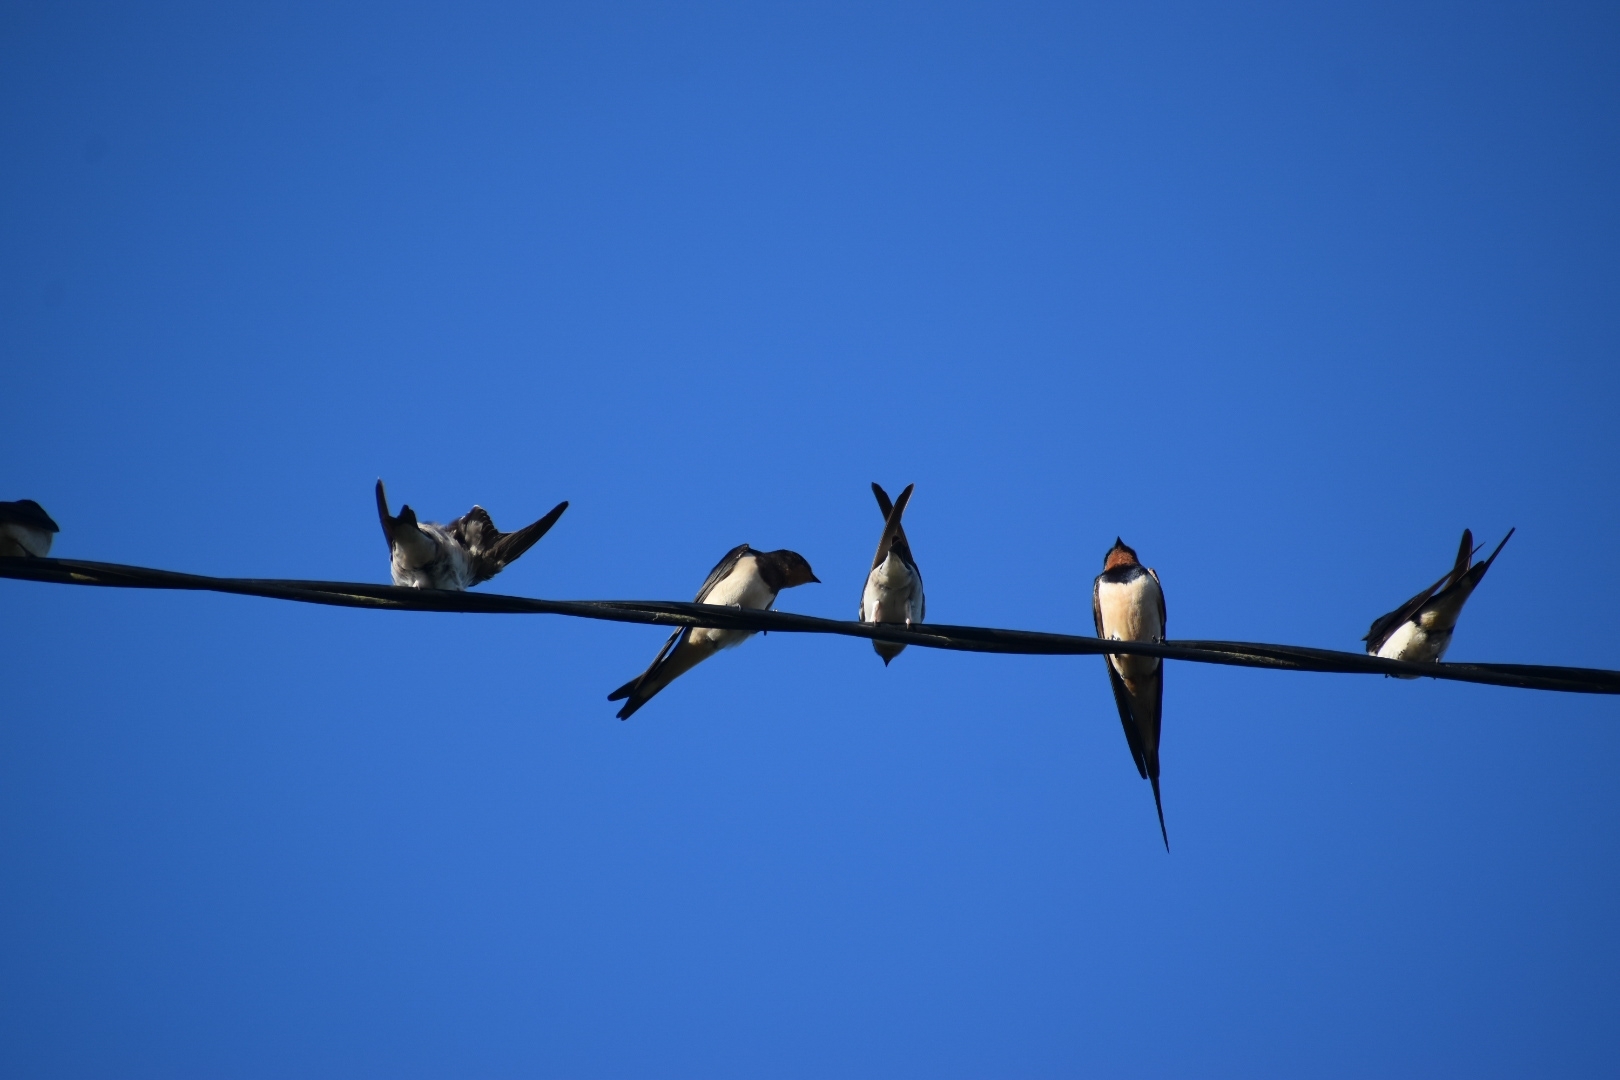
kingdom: Animalia
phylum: Chordata
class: Aves
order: Passeriformes
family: Hirundinidae
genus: Hirundo
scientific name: Hirundo rustica
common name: Barn swallow
